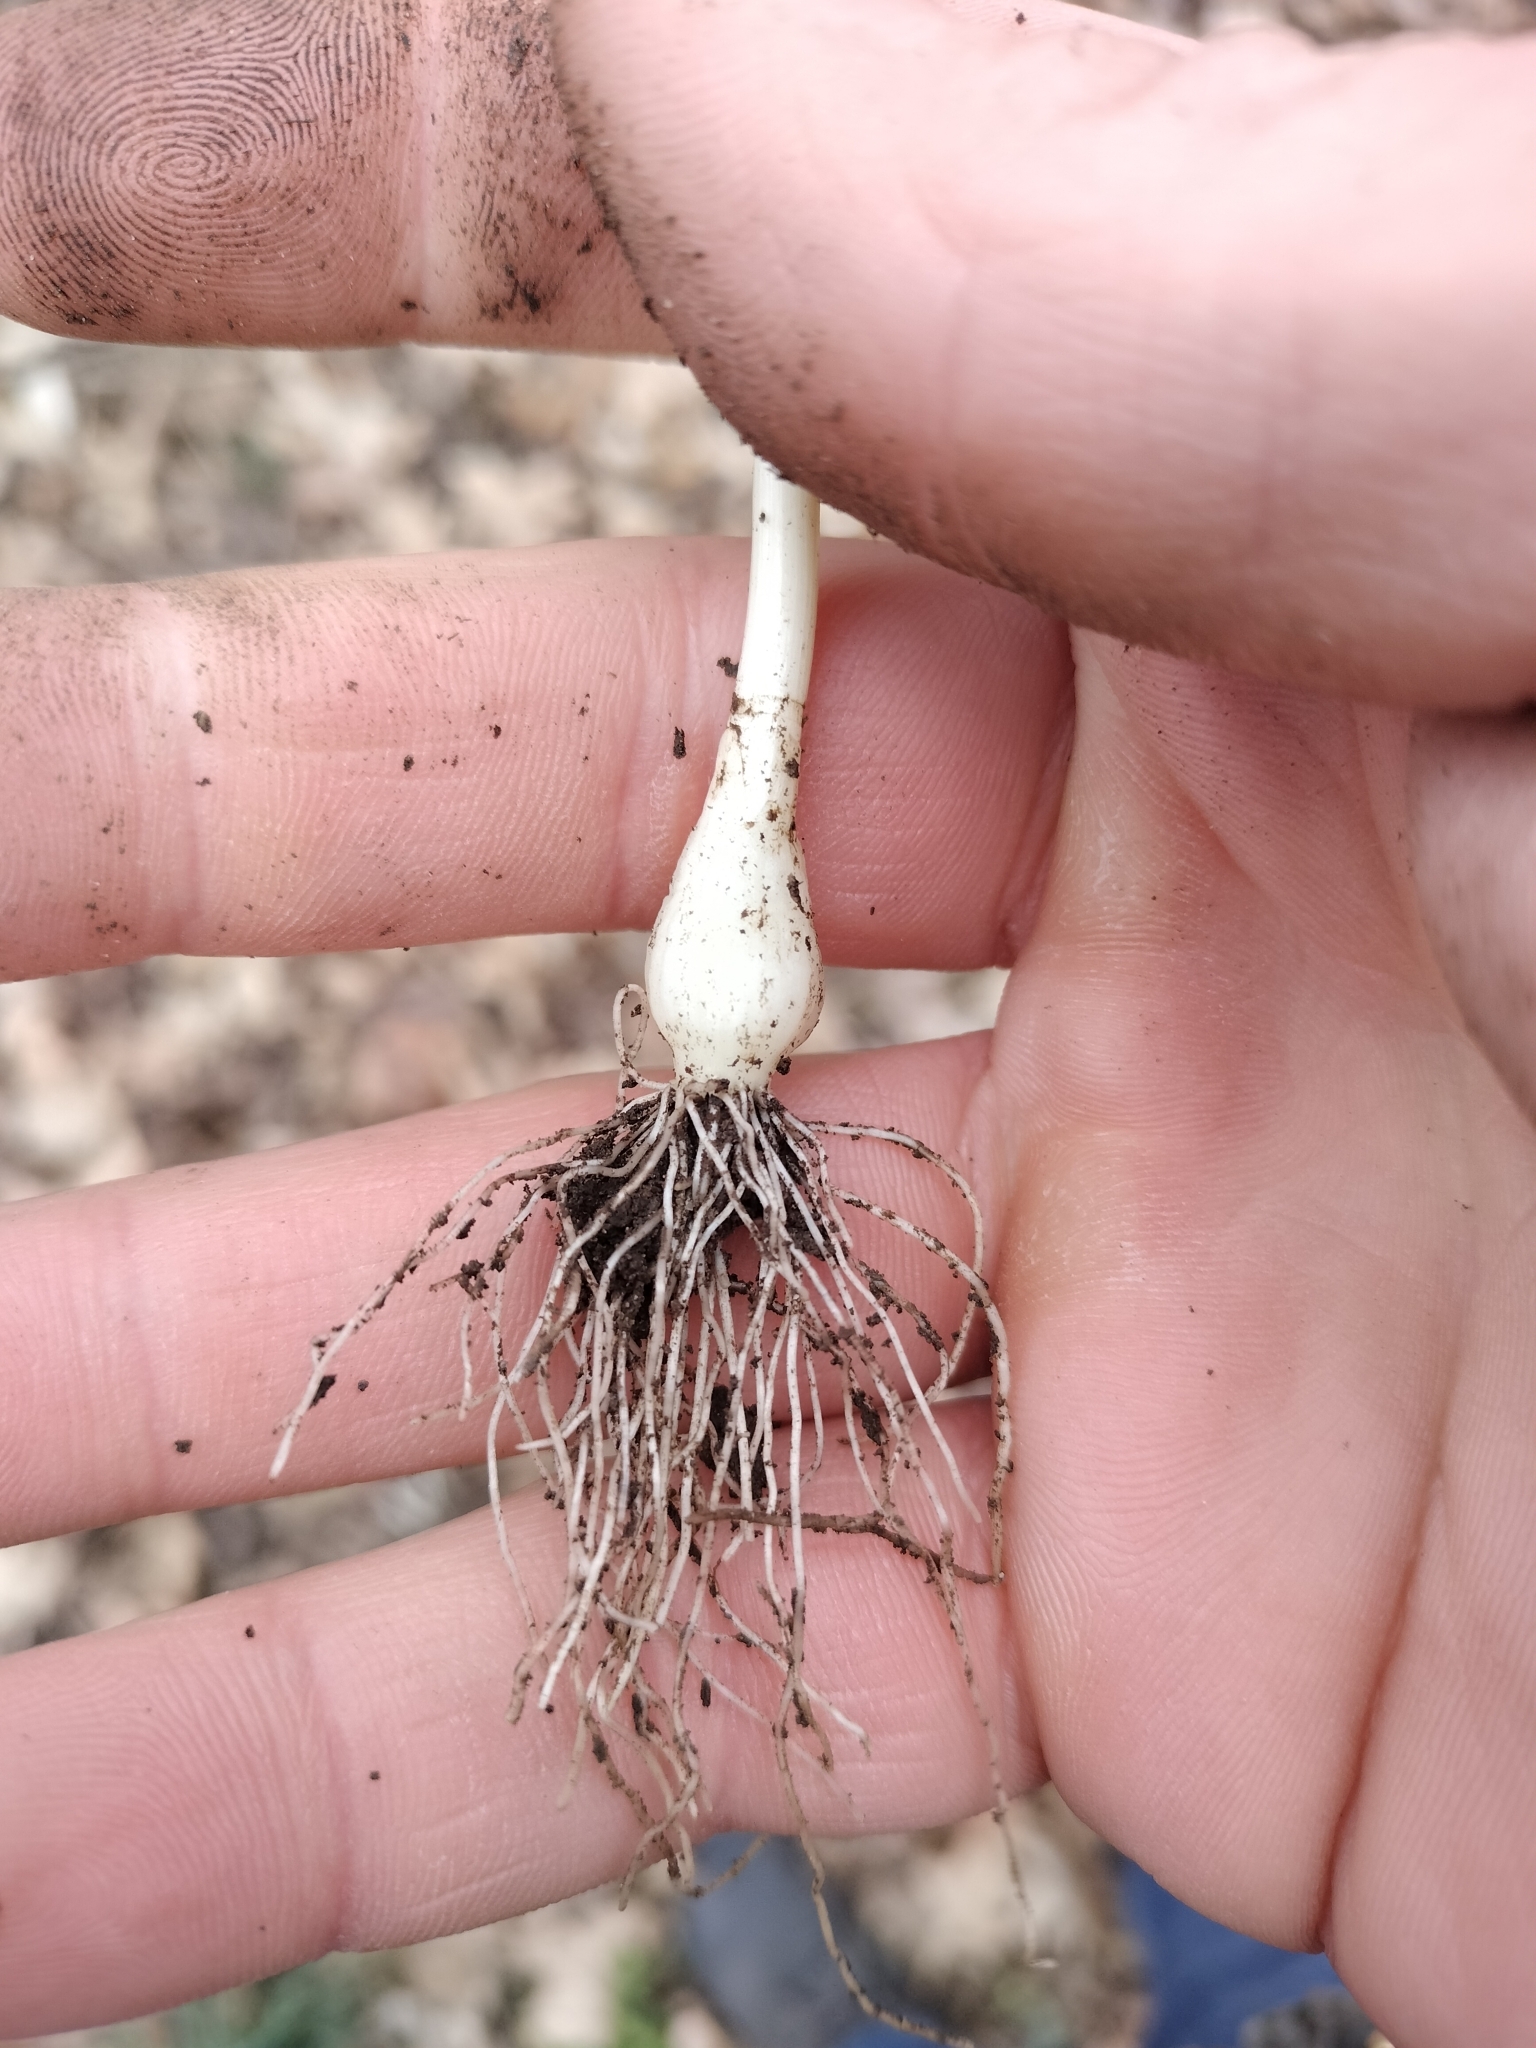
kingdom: Plantae
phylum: Tracheophyta
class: Liliopsida
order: Asparagales
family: Amaryllidaceae
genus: Allium
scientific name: Allium vineale
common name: Crow garlic
